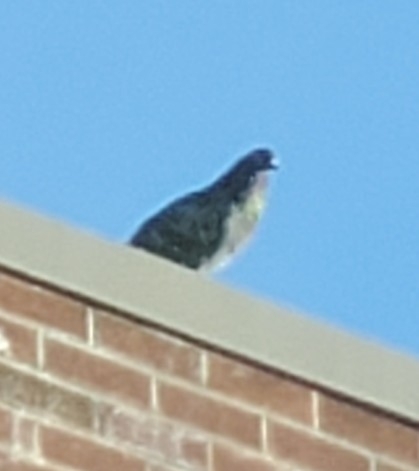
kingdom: Animalia
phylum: Chordata
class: Aves
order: Columbiformes
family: Columbidae
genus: Columba
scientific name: Columba livia
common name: Rock pigeon
